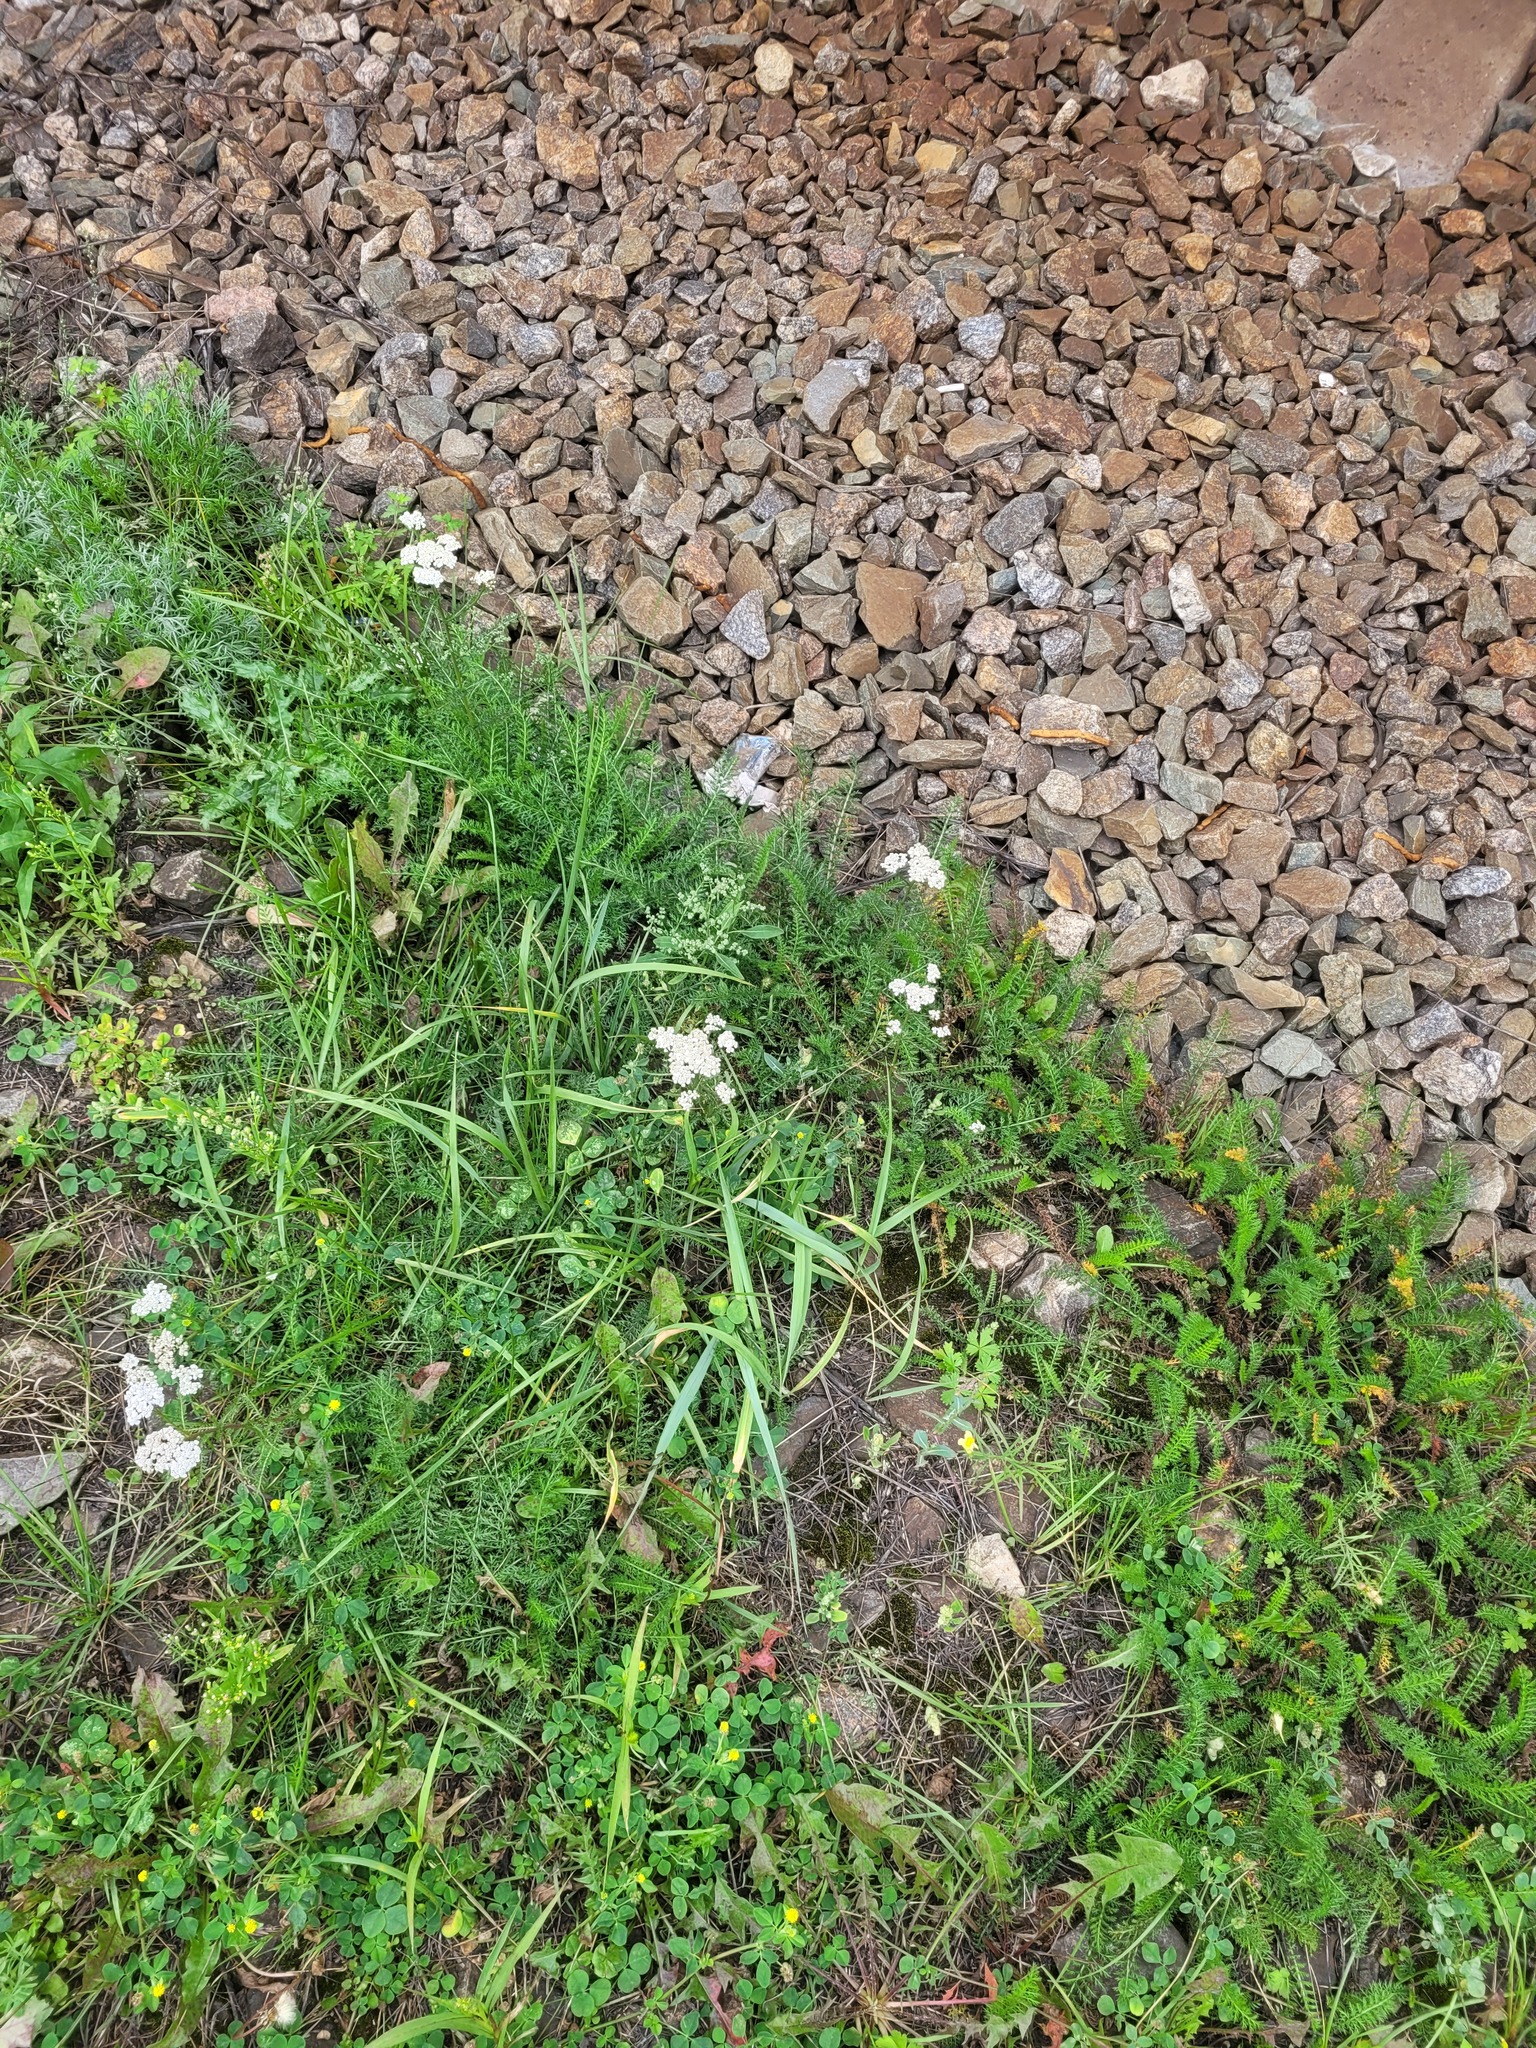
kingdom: Plantae
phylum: Tracheophyta
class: Magnoliopsida
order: Asterales
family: Asteraceae
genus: Achillea
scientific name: Achillea millefolium
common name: Yarrow
